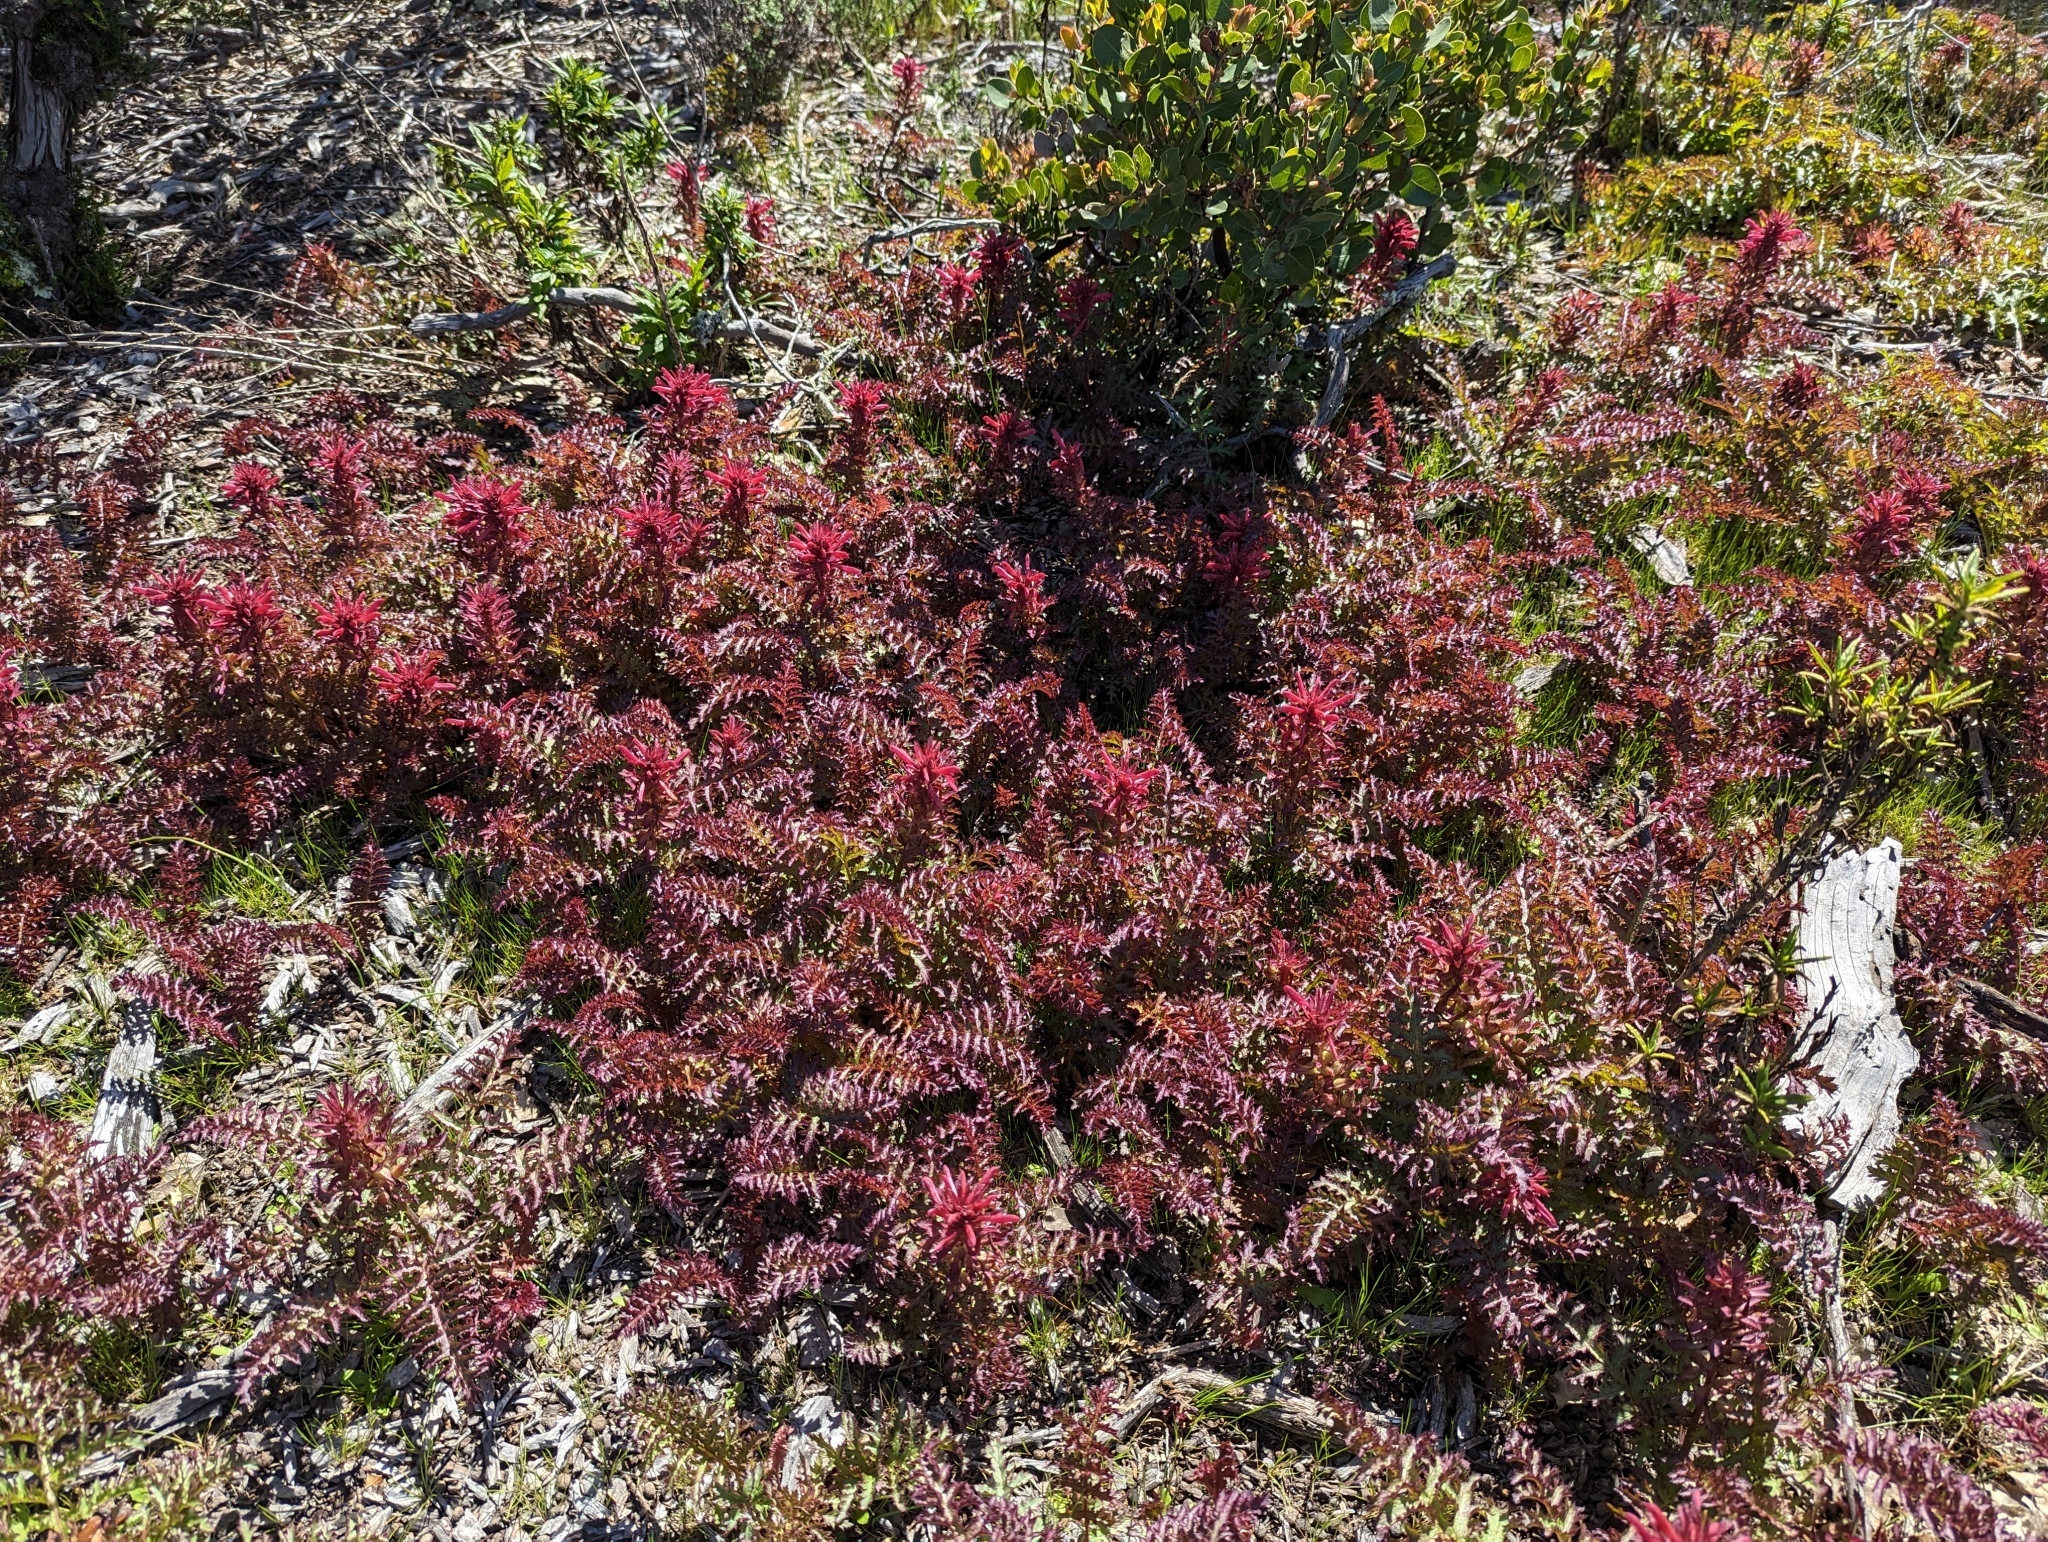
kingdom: Plantae
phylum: Tracheophyta
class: Magnoliopsida
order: Lamiales
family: Orobanchaceae
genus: Pedicularis
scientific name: Pedicularis densiflora
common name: Indian warrior
